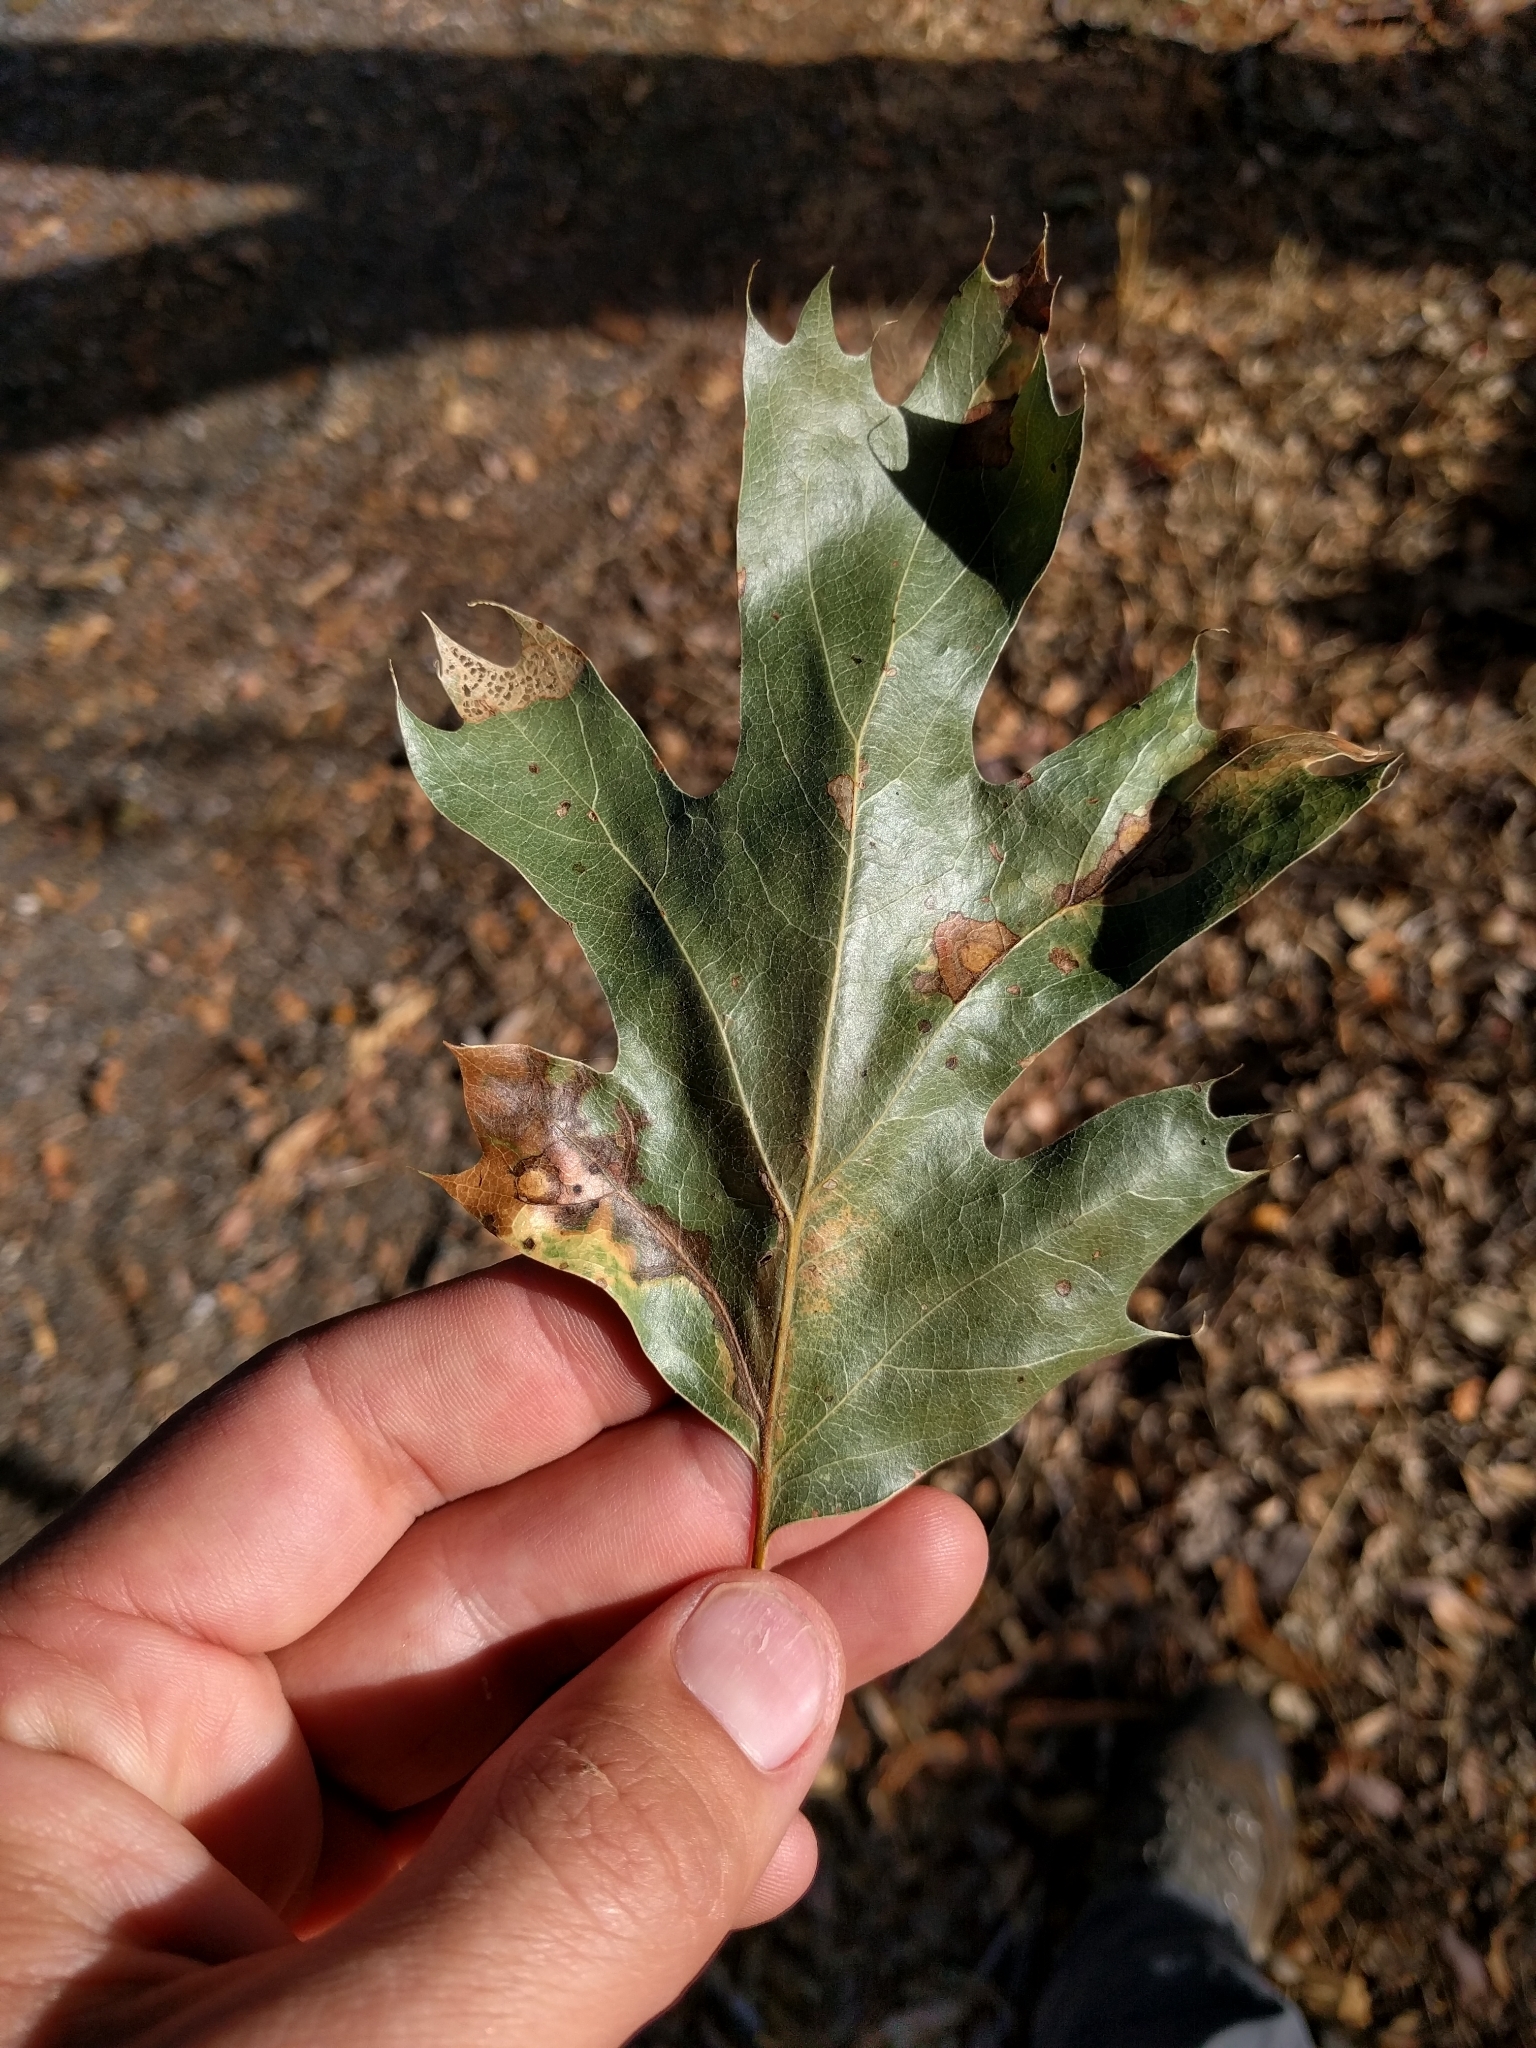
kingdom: Plantae
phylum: Tracheophyta
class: Magnoliopsida
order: Fagales
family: Fagaceae
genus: Quercus
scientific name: Quercus kelloggii
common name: California black oak
